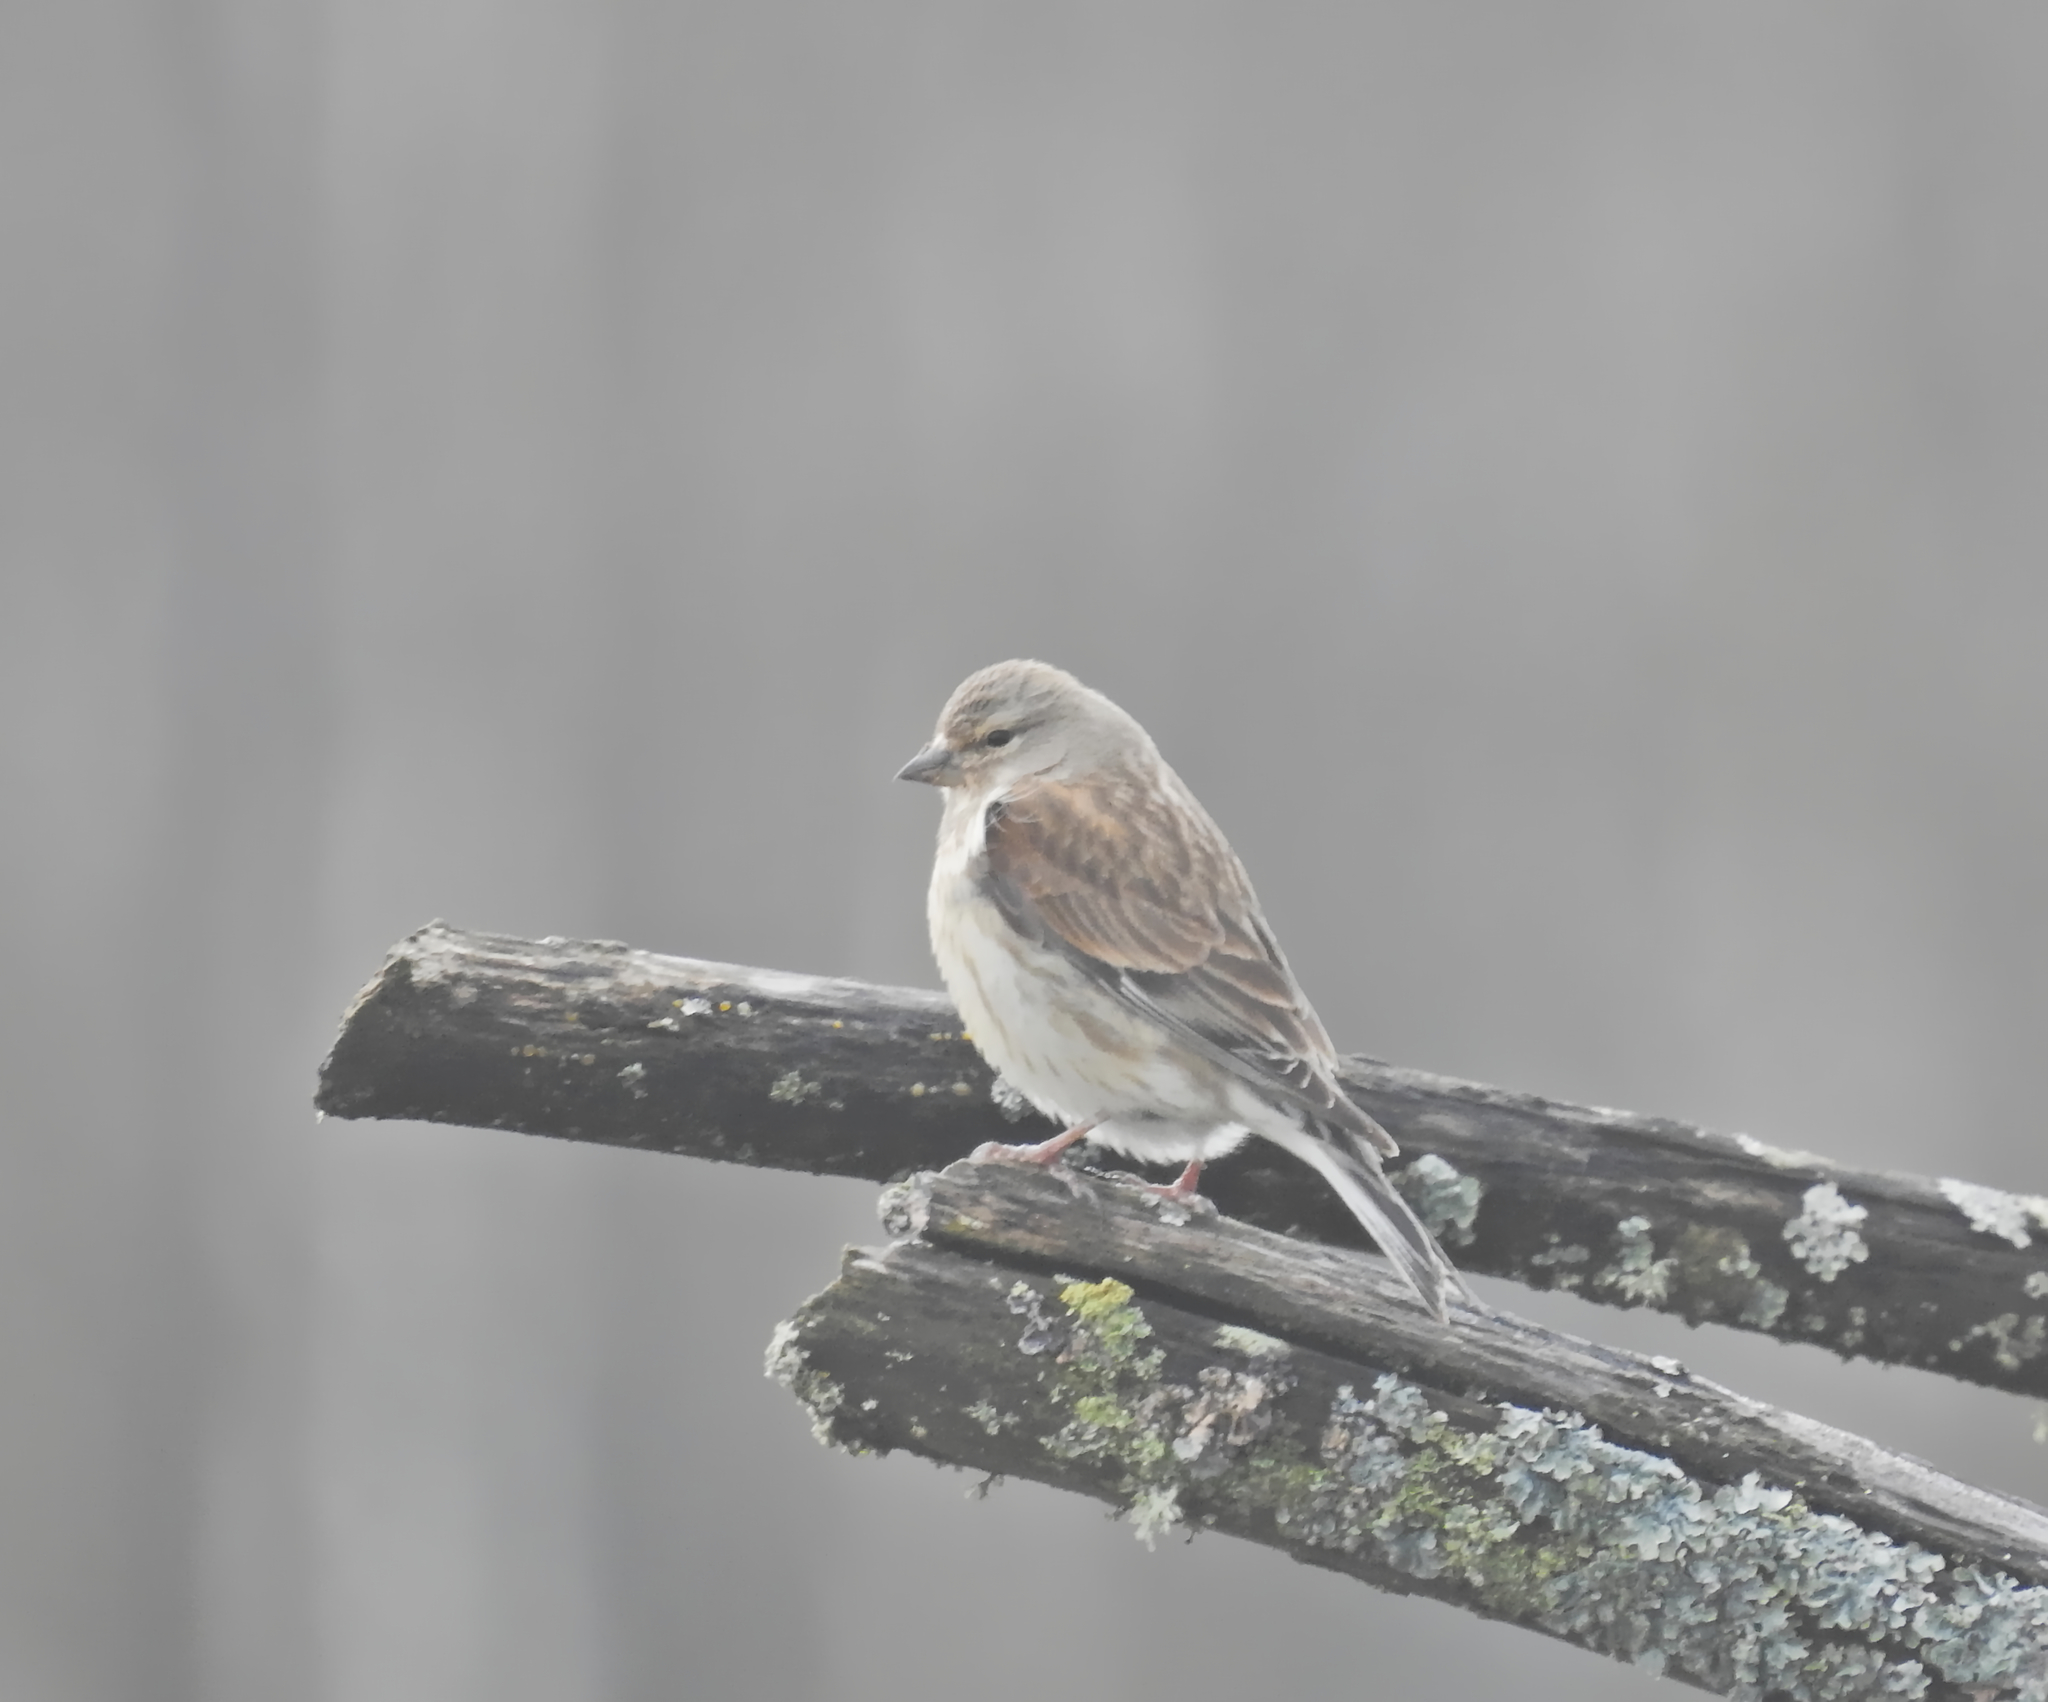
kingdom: Animalia
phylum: Chordata
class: Aves
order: Passeriformes
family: Fringillidae
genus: Linaria
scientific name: Linaria cannabina
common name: Common linnet
